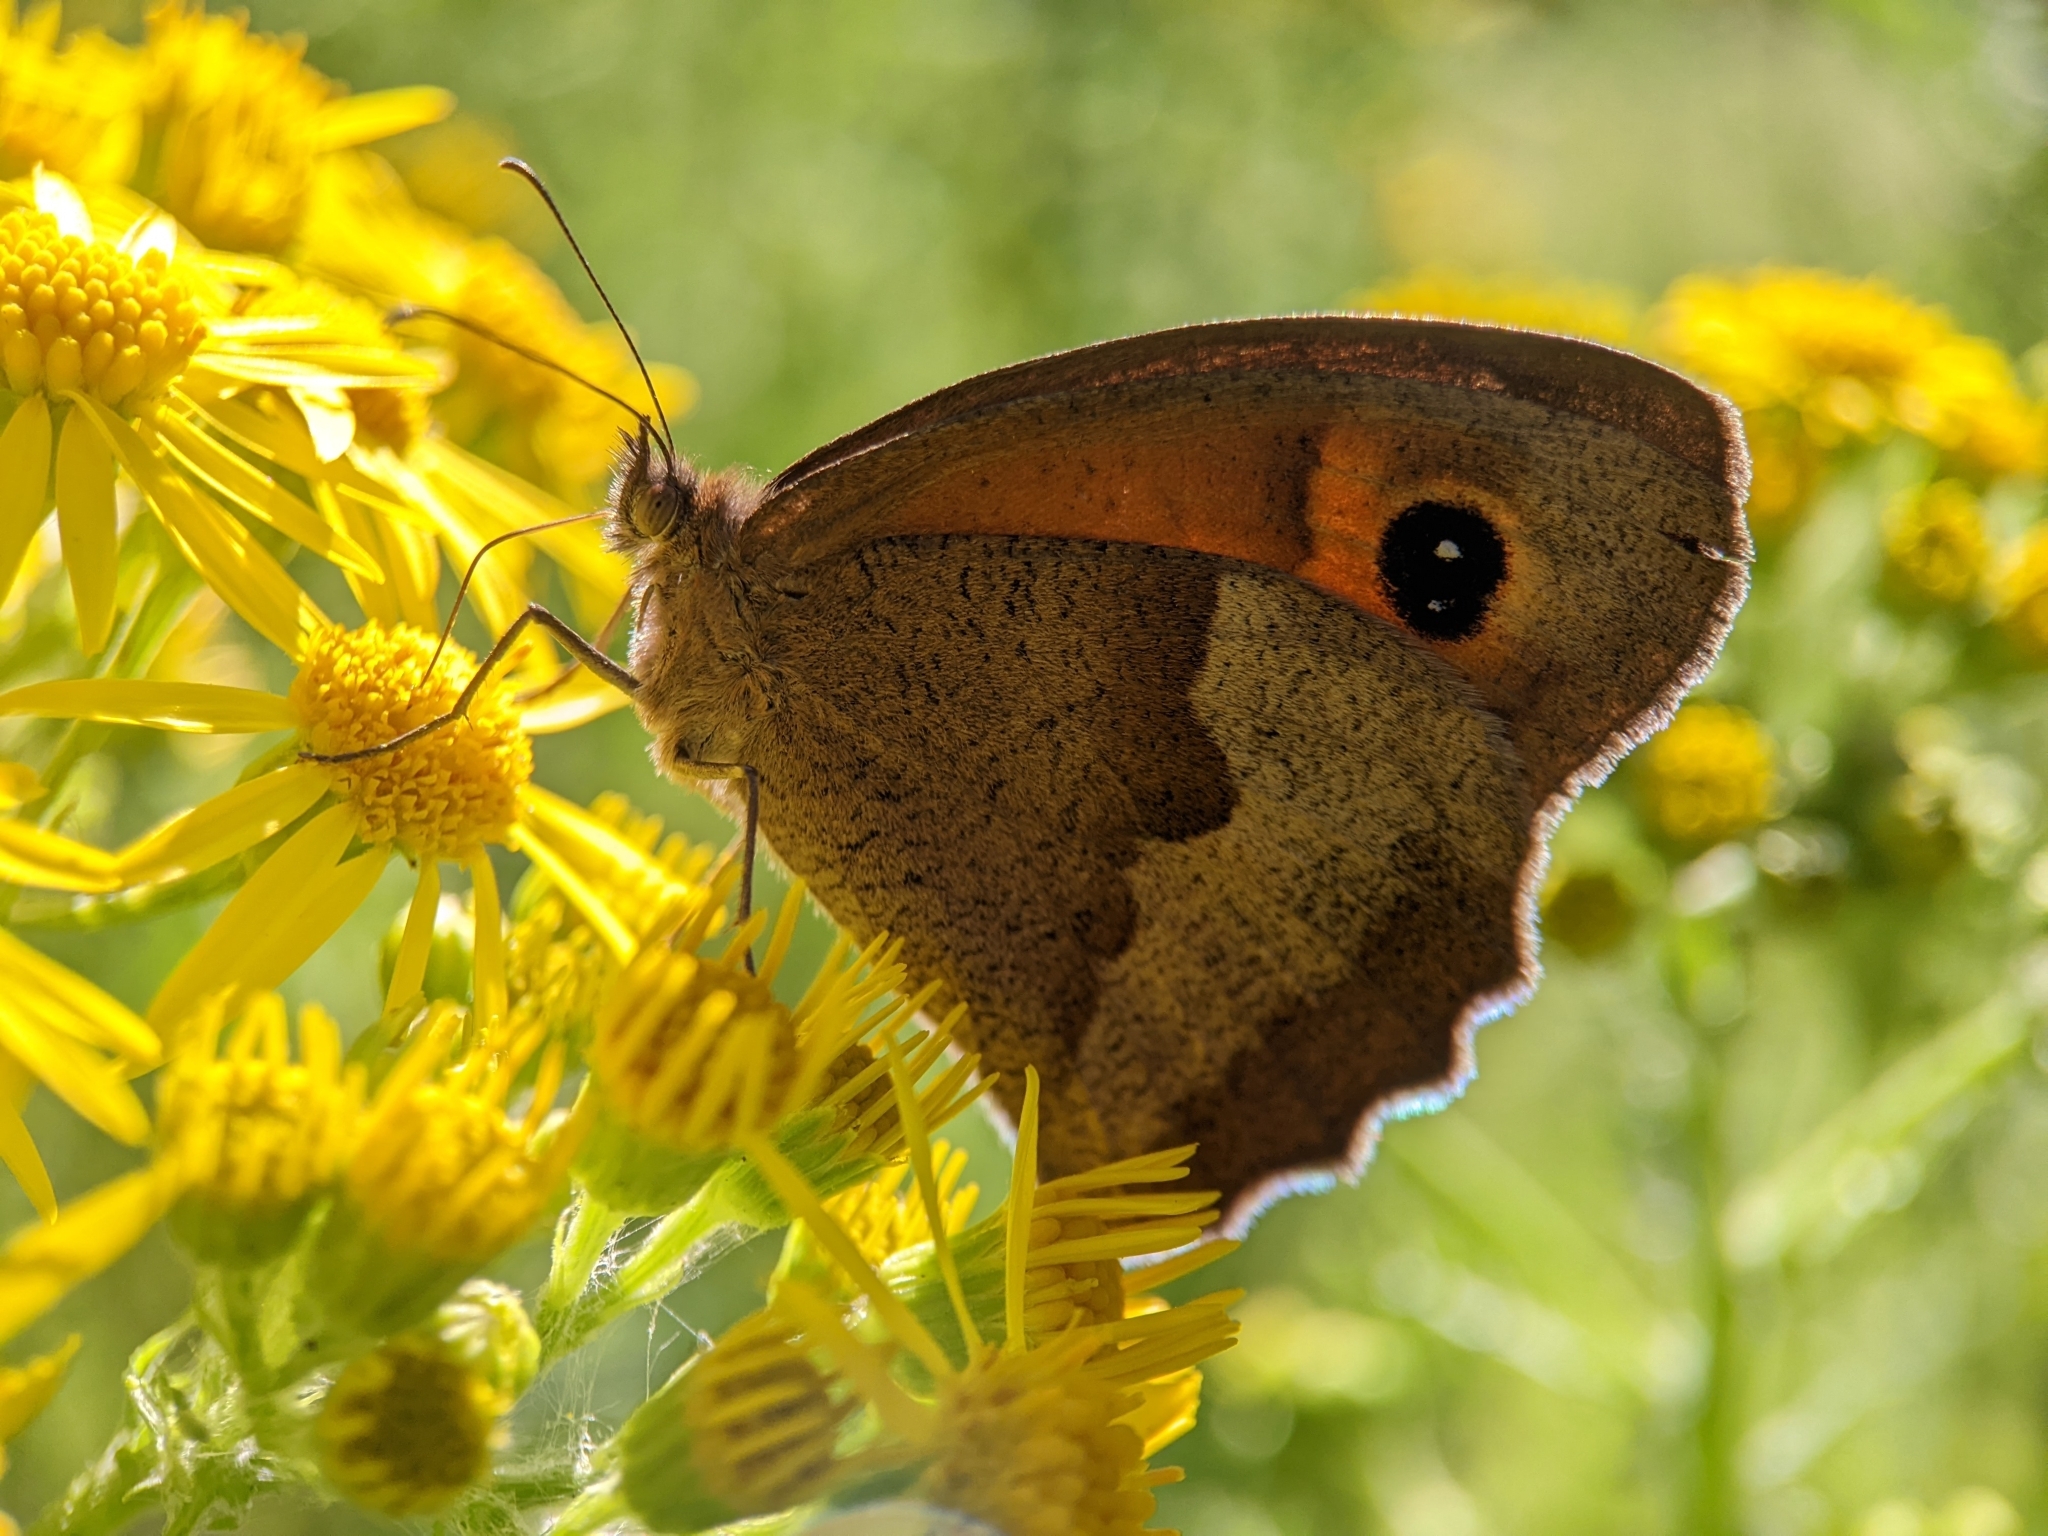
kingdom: Animalia
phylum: Arthropoda
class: Insecta
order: Lepidoptera
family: Nymphalidae
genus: Maniola
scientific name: Maniola jurtina
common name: Meadow brown
